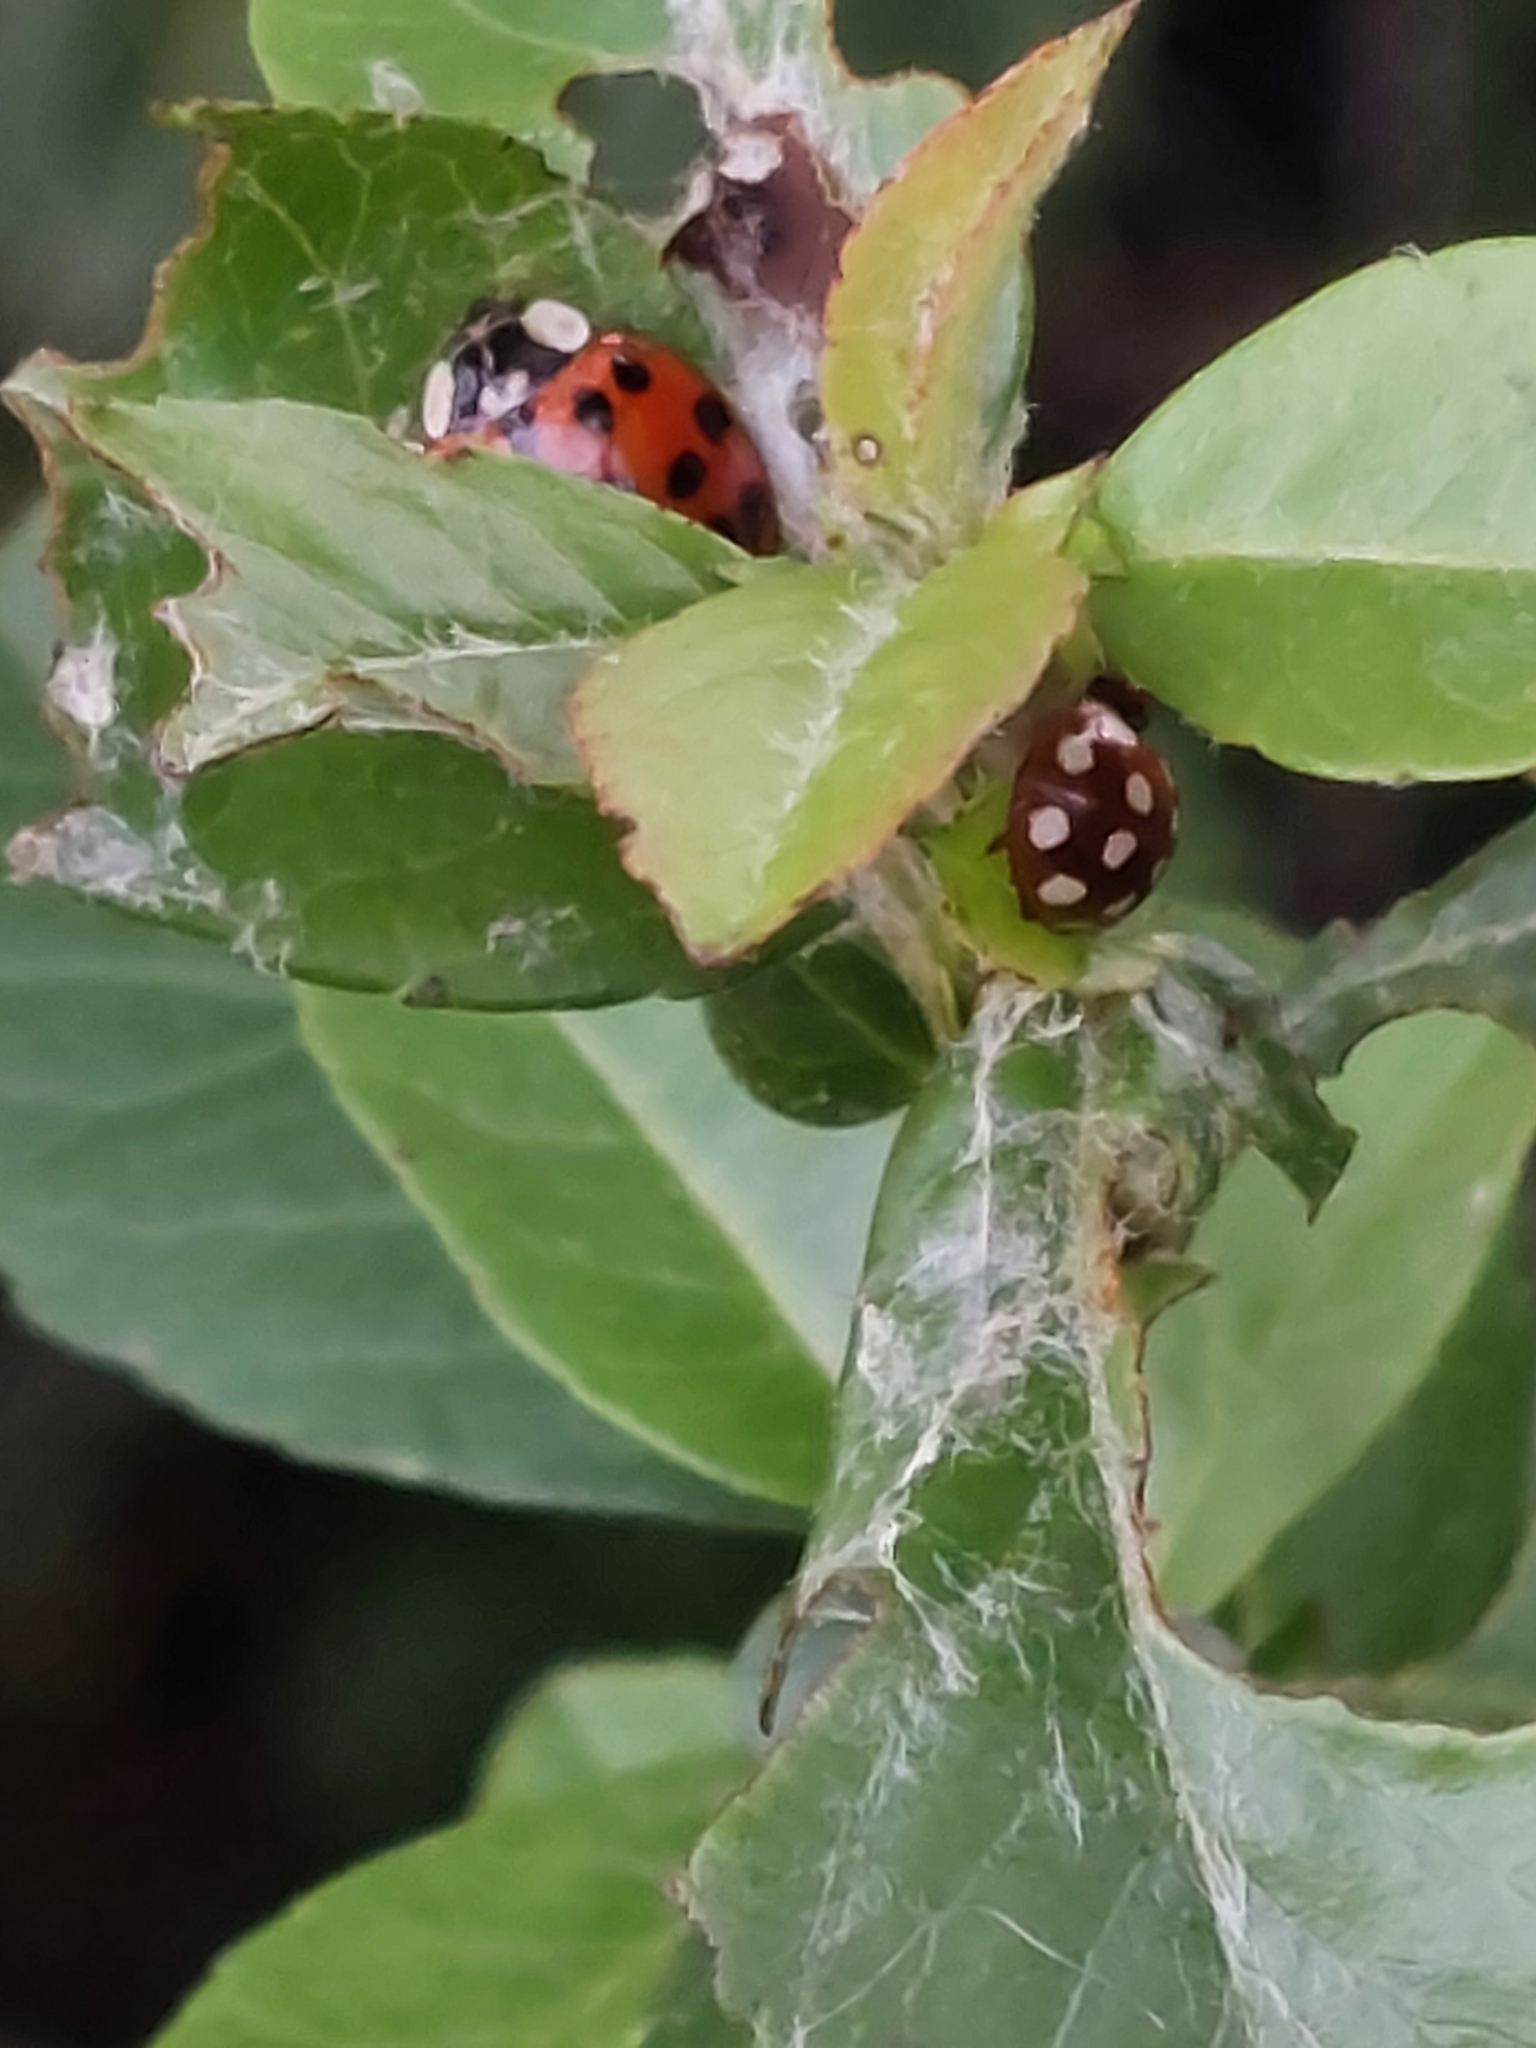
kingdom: Animalia
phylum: Arthropoda
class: Insecta
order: Coleoptera
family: Coccinellidae
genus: Calvia
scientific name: Calvia quatuordecimguttata
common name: Cream-spot ladybird
